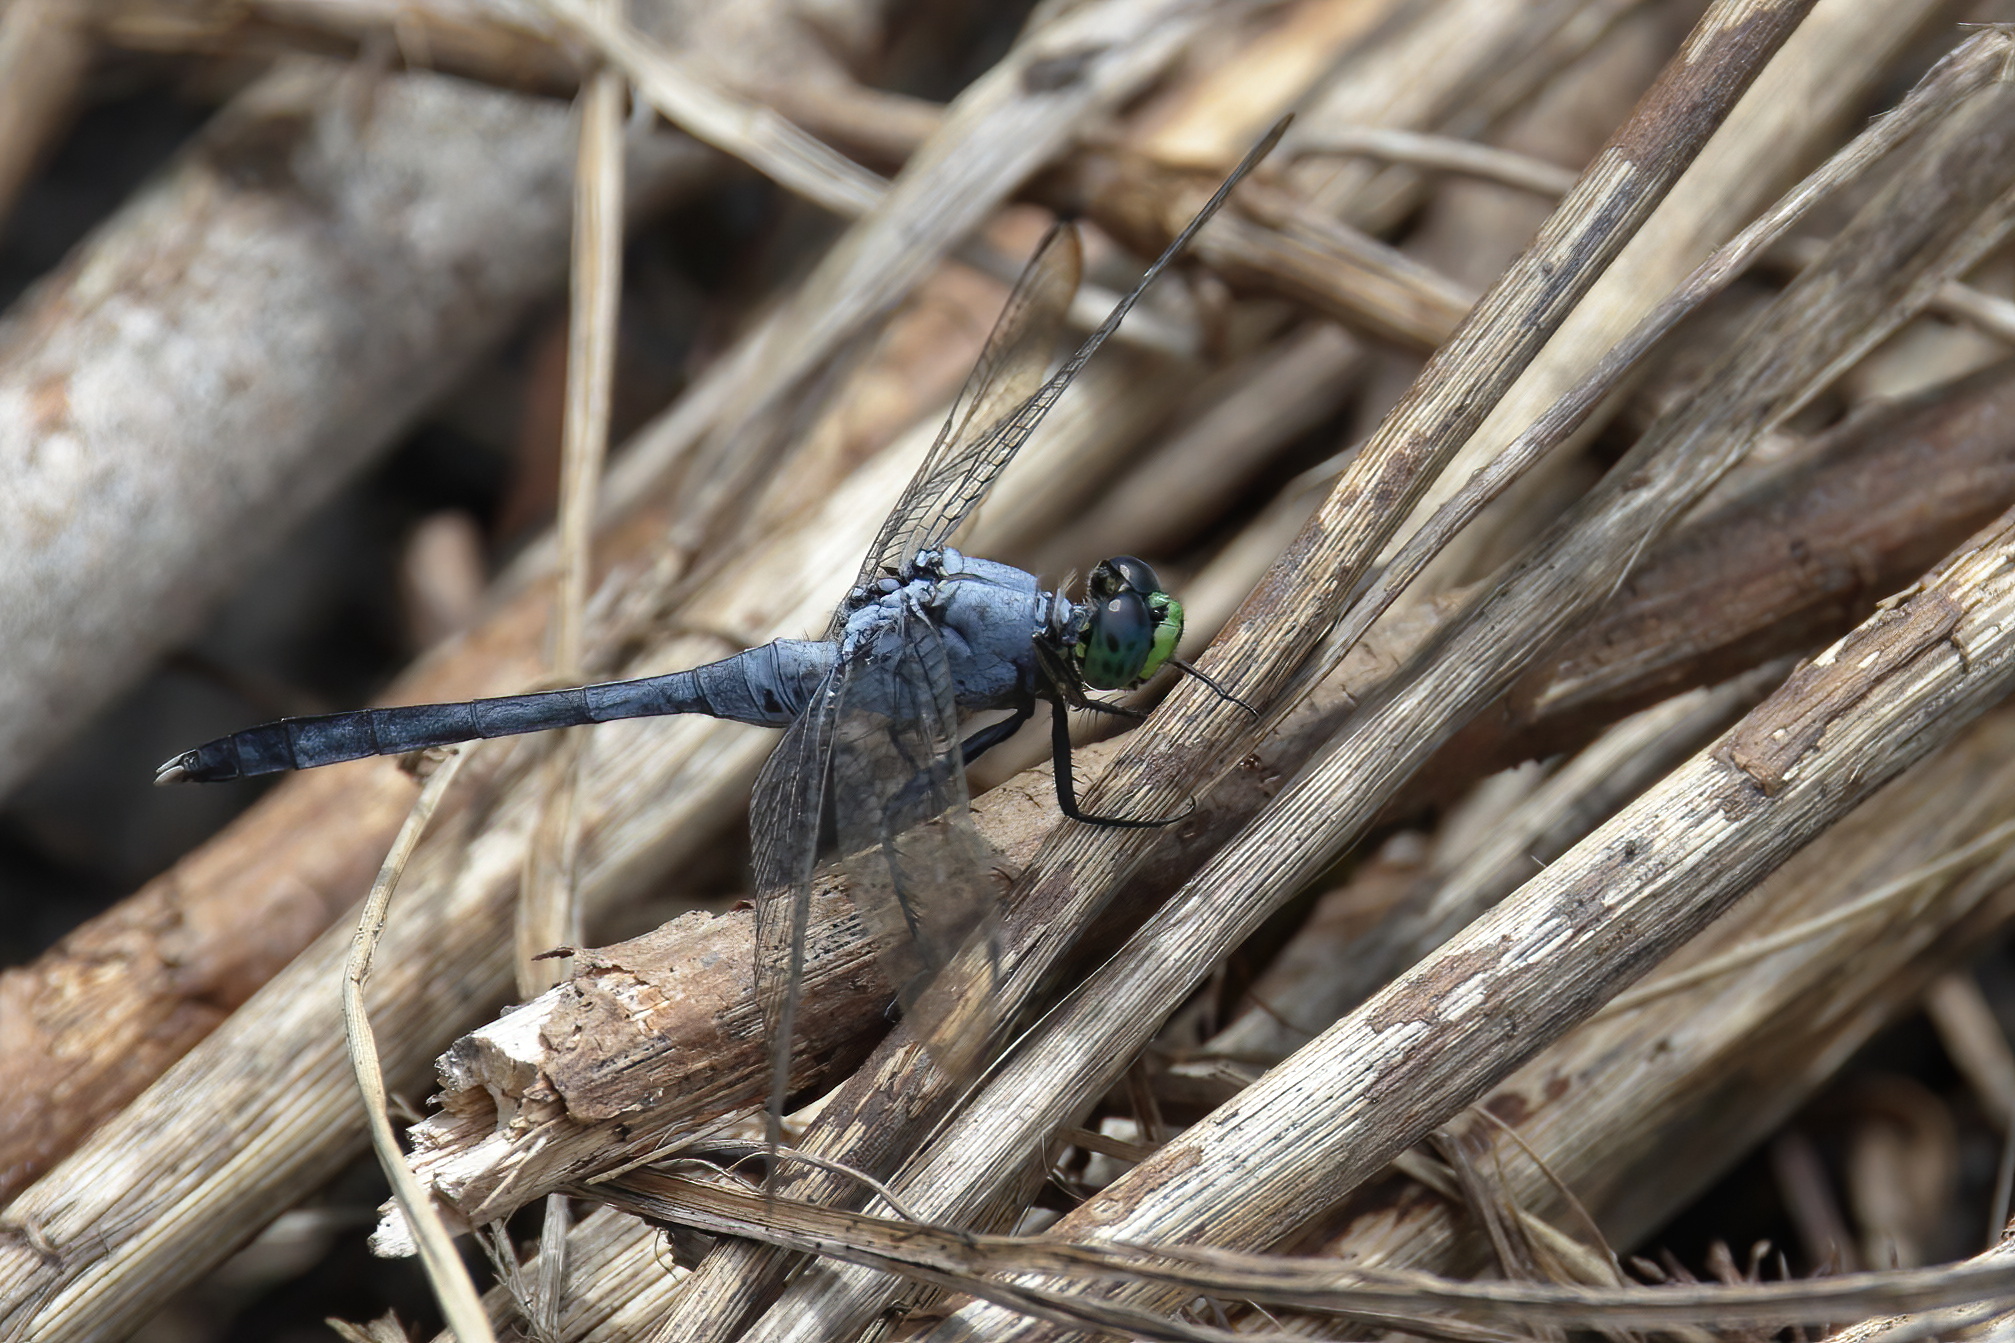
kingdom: Animalia
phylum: Arthropoda
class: Insecta
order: Odonata
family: Libellulidae
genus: Erythemis
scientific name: Erythemis simplicicollis
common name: Eastern pondhawk
